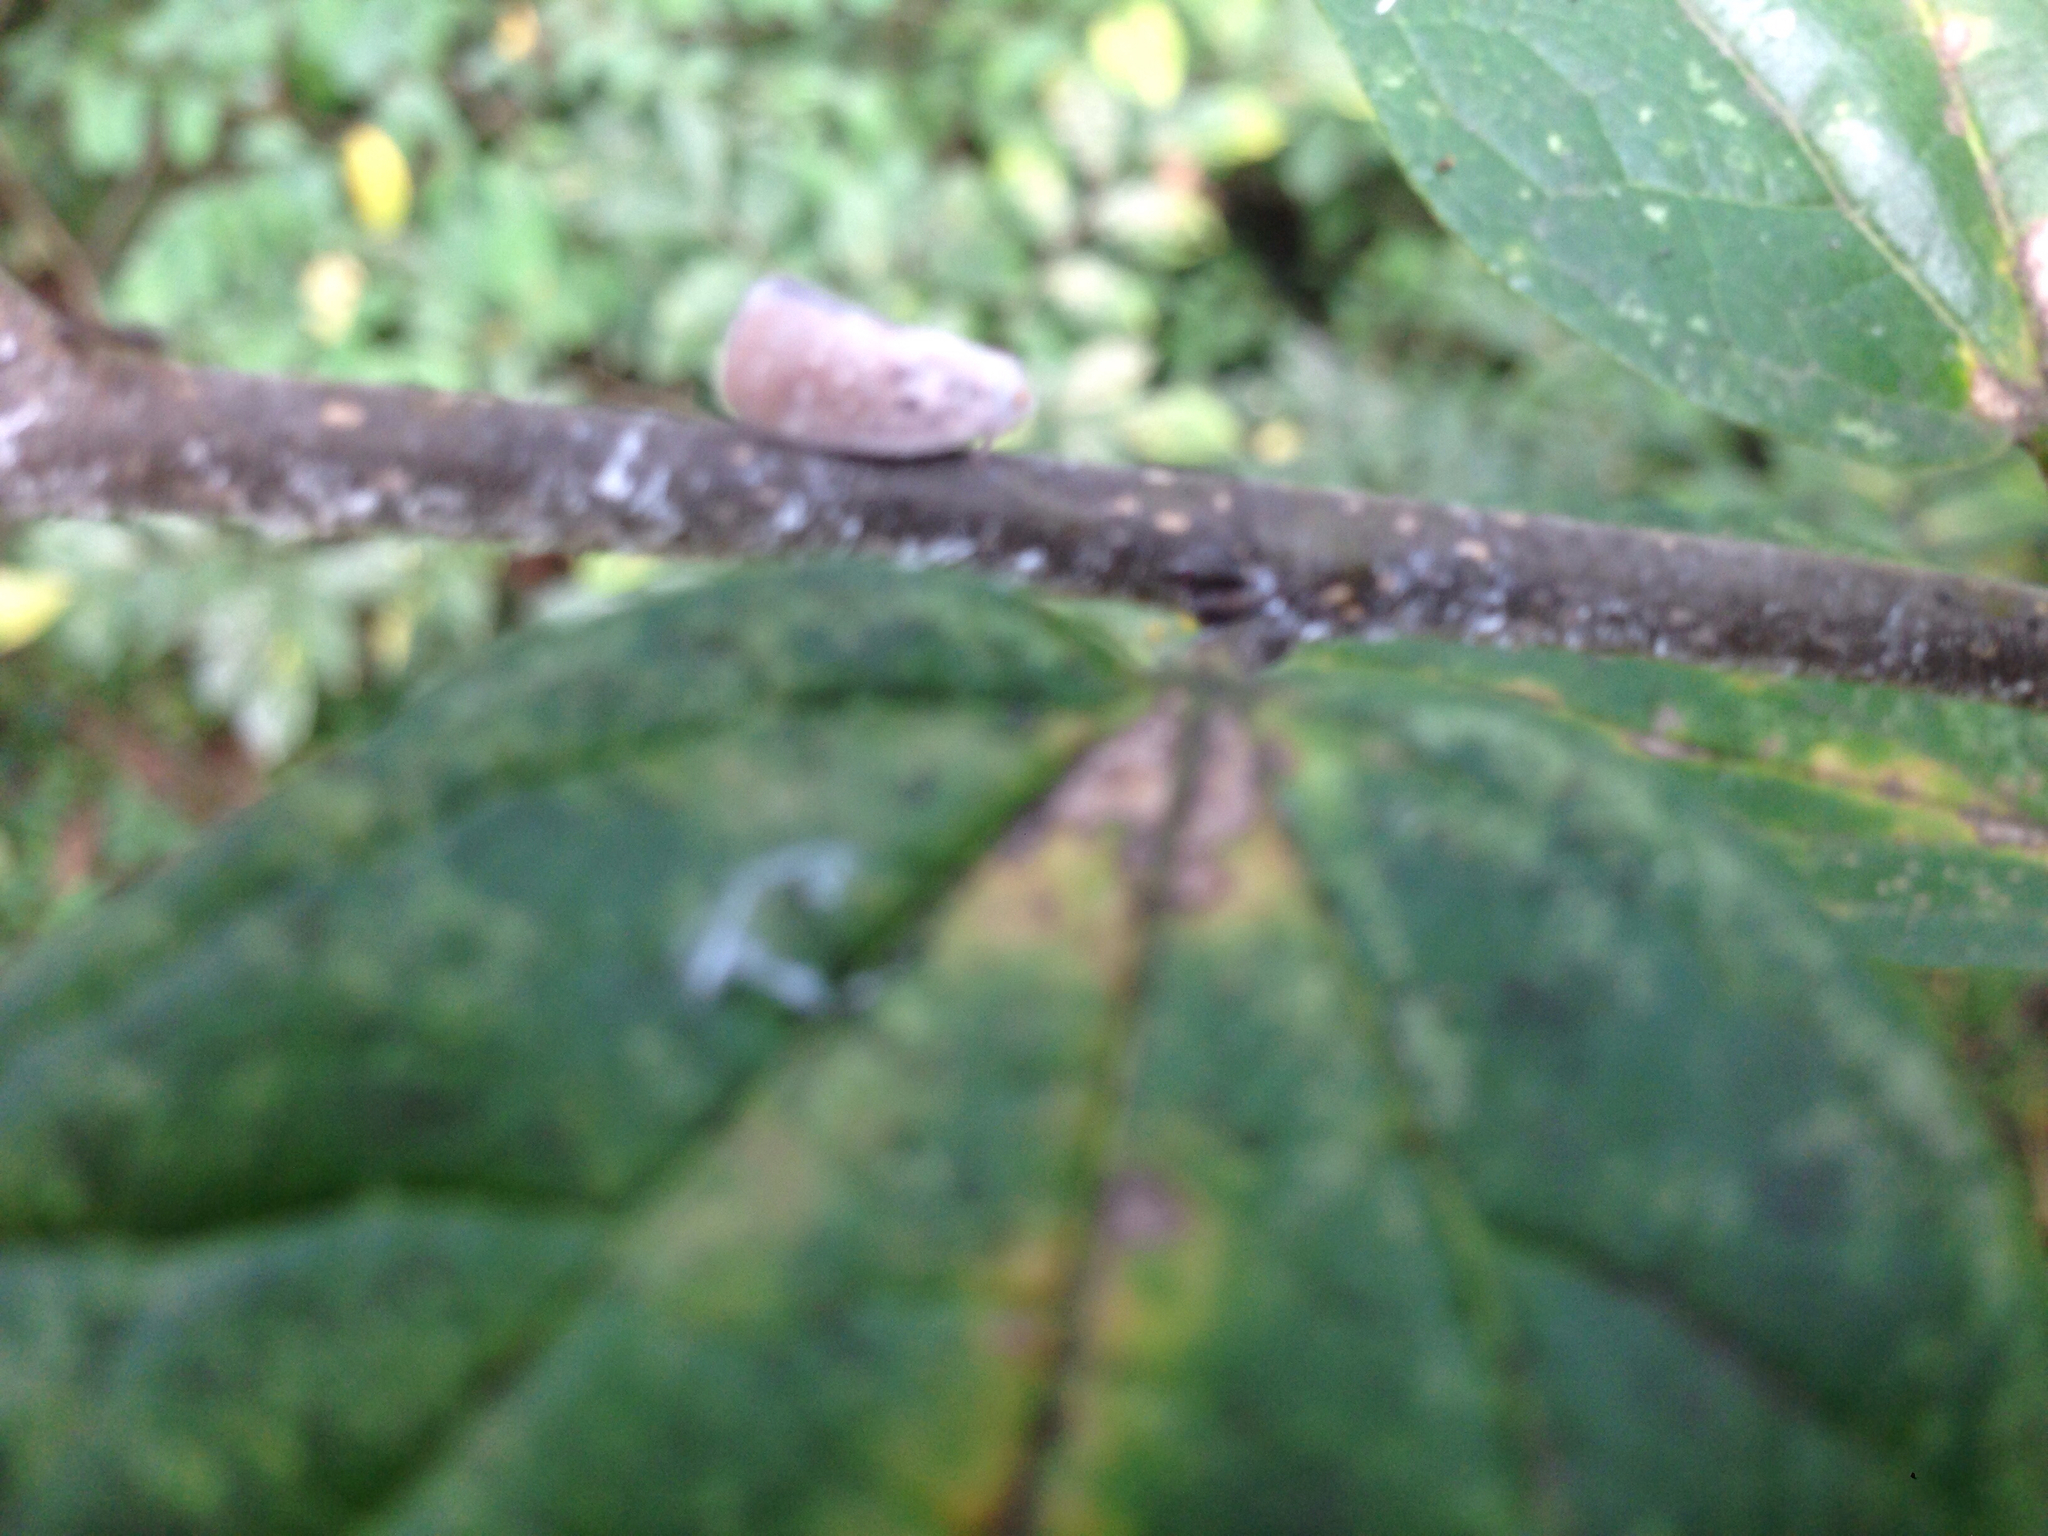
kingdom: Animalia
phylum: Arthropoda
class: Insecta
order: Hemiptera
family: Flatidae
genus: Metcalfa
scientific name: Metcalfa pruinosa
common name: Citrus flatid planthopper
